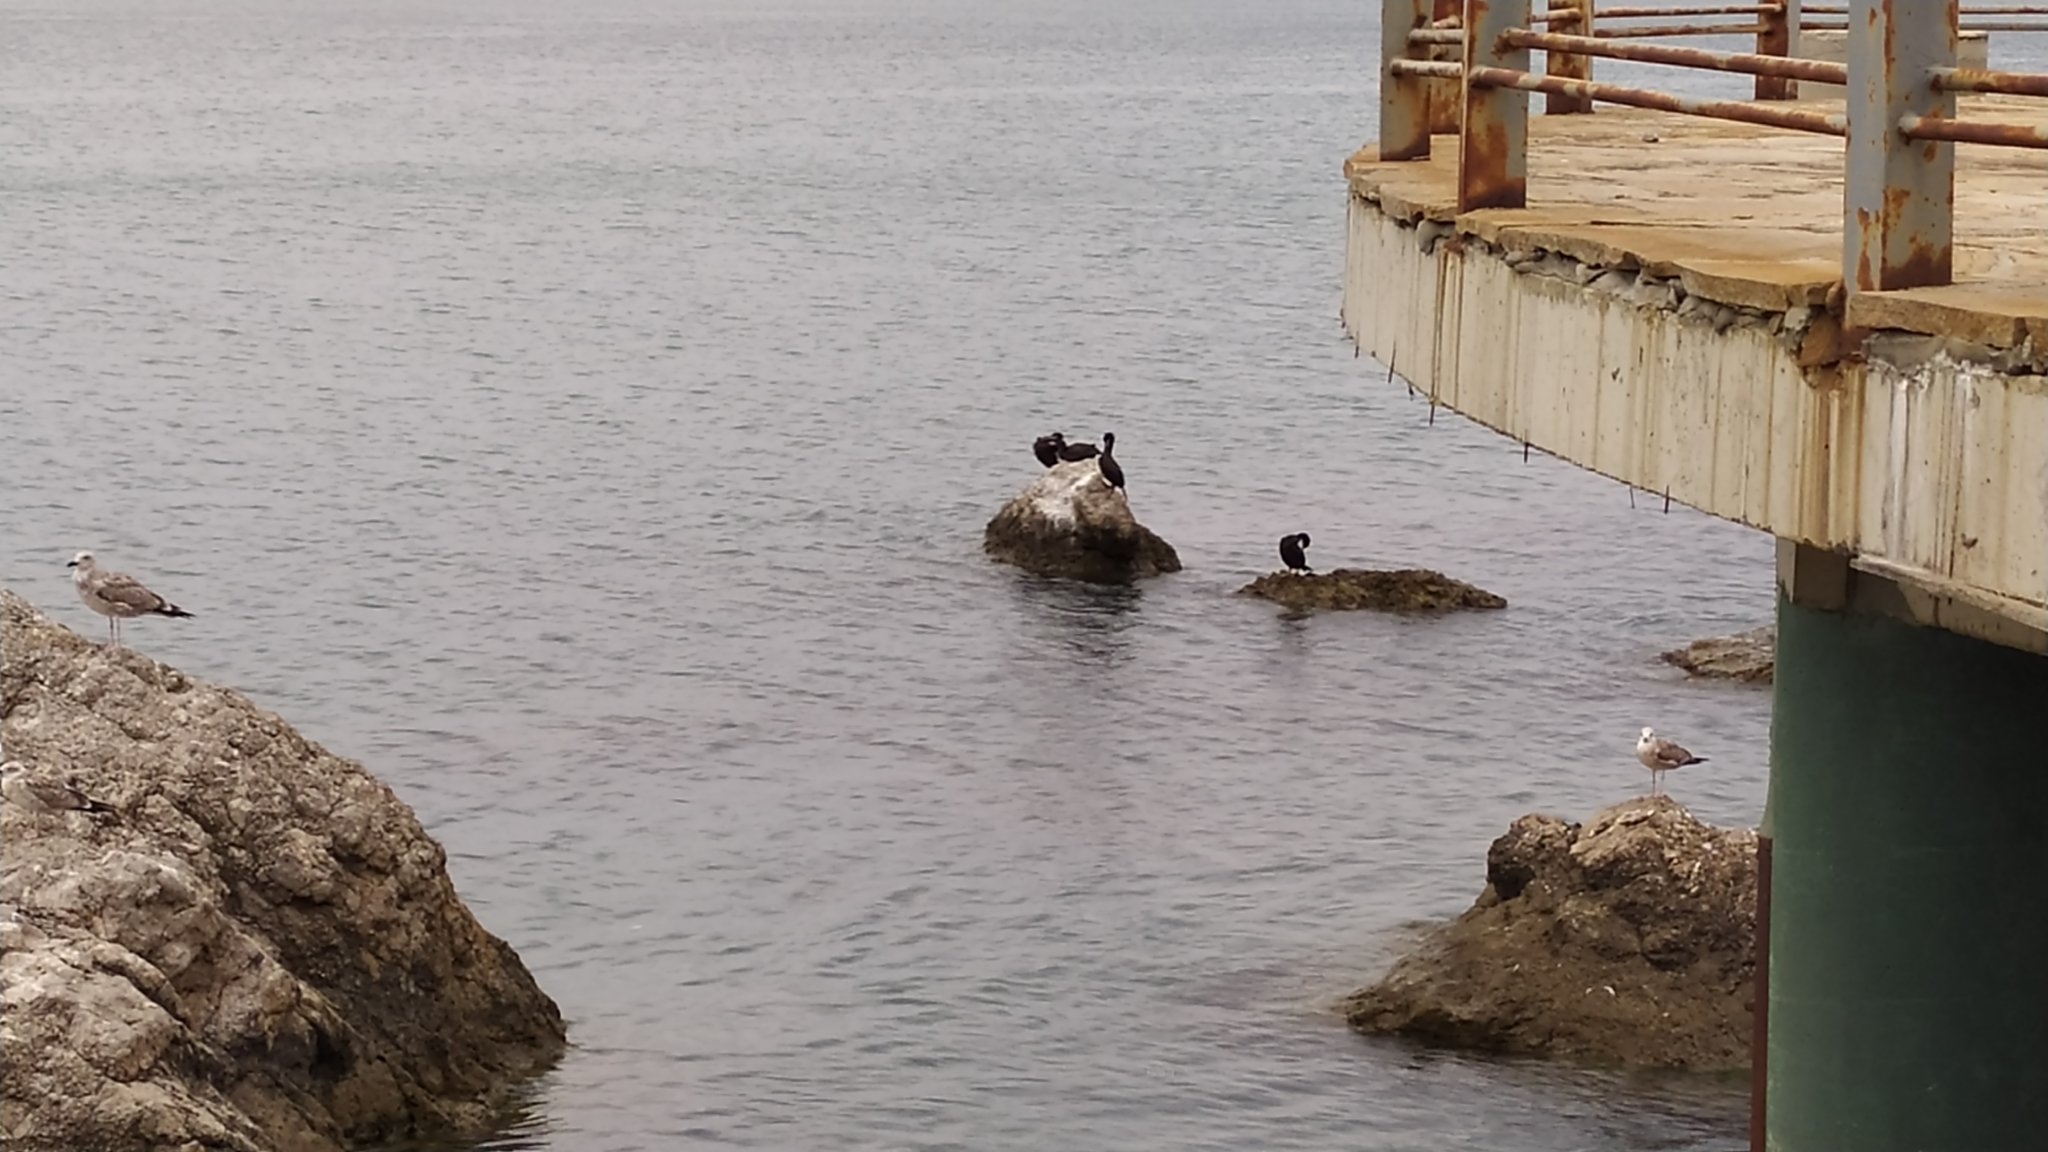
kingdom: Animalia
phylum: Chordata
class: Aves
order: Suliformes
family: Phalacrocoracidae
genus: Phalacrocorax
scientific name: Phalacrocorax aristotelis
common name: European shag
